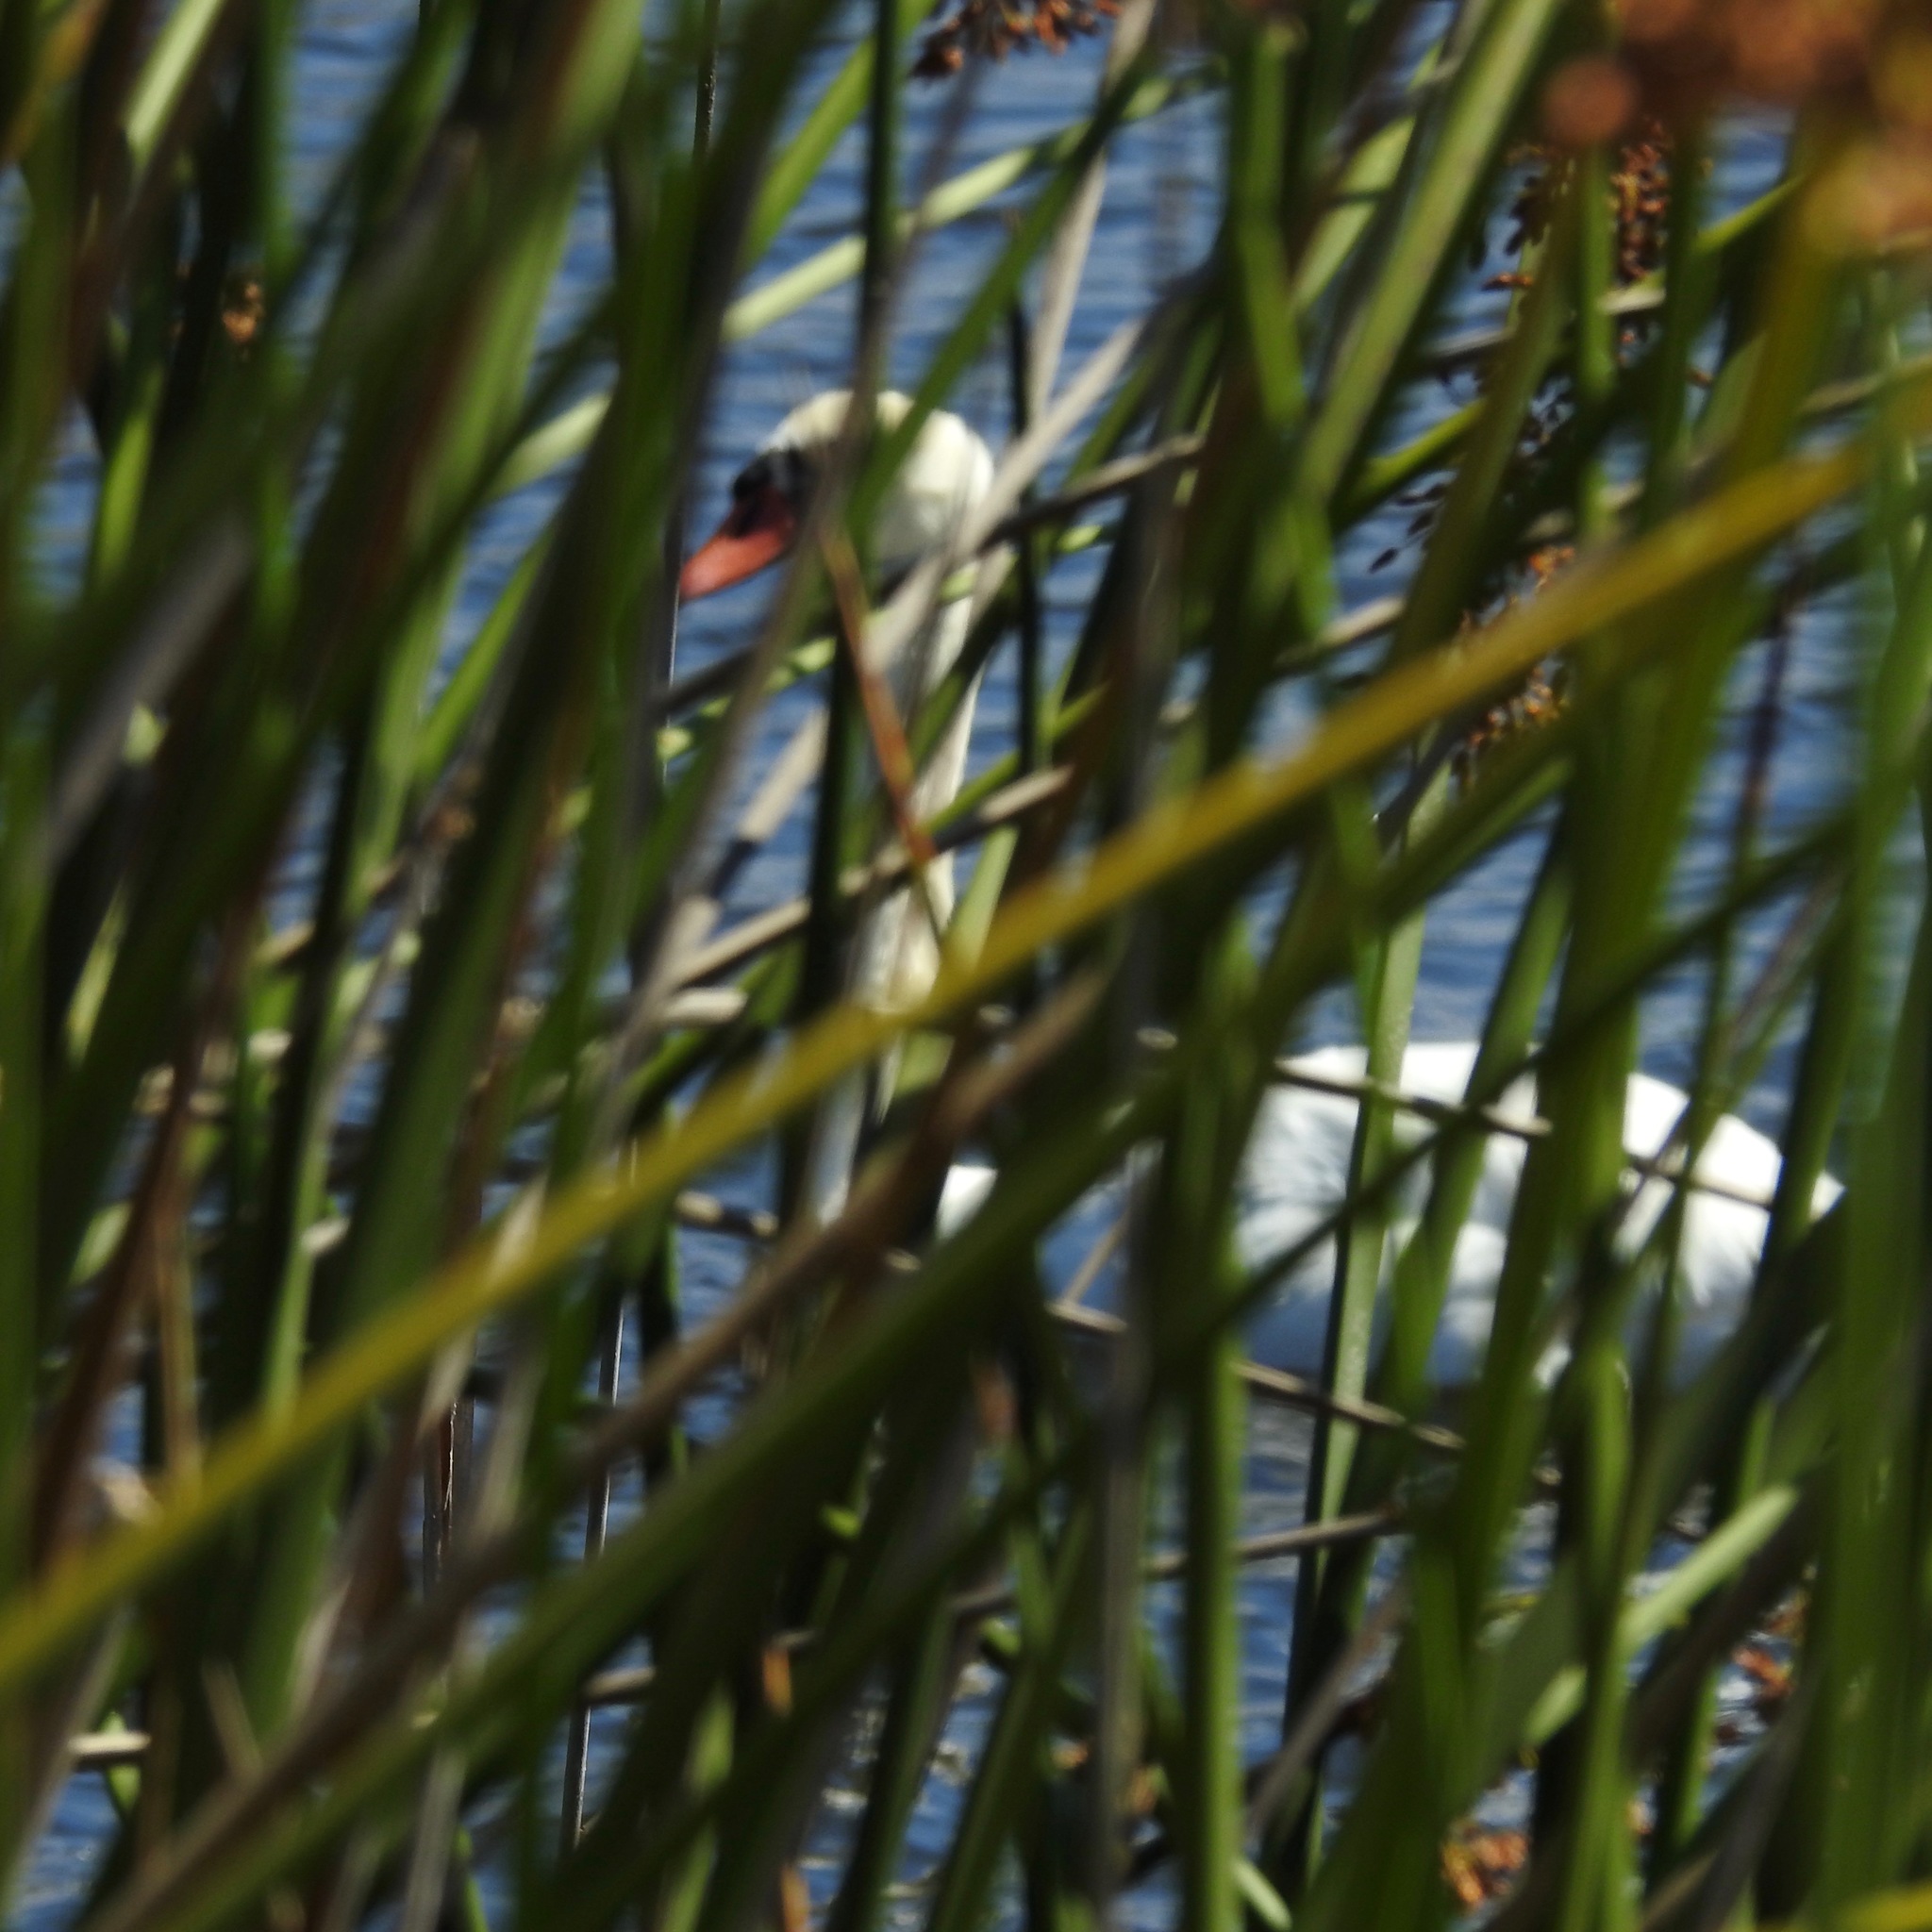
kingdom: Animalia
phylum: Chordata
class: Aves
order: Anseriformes
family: Anatidae
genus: Cygnus
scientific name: Cygnus olor
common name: Mute swan
